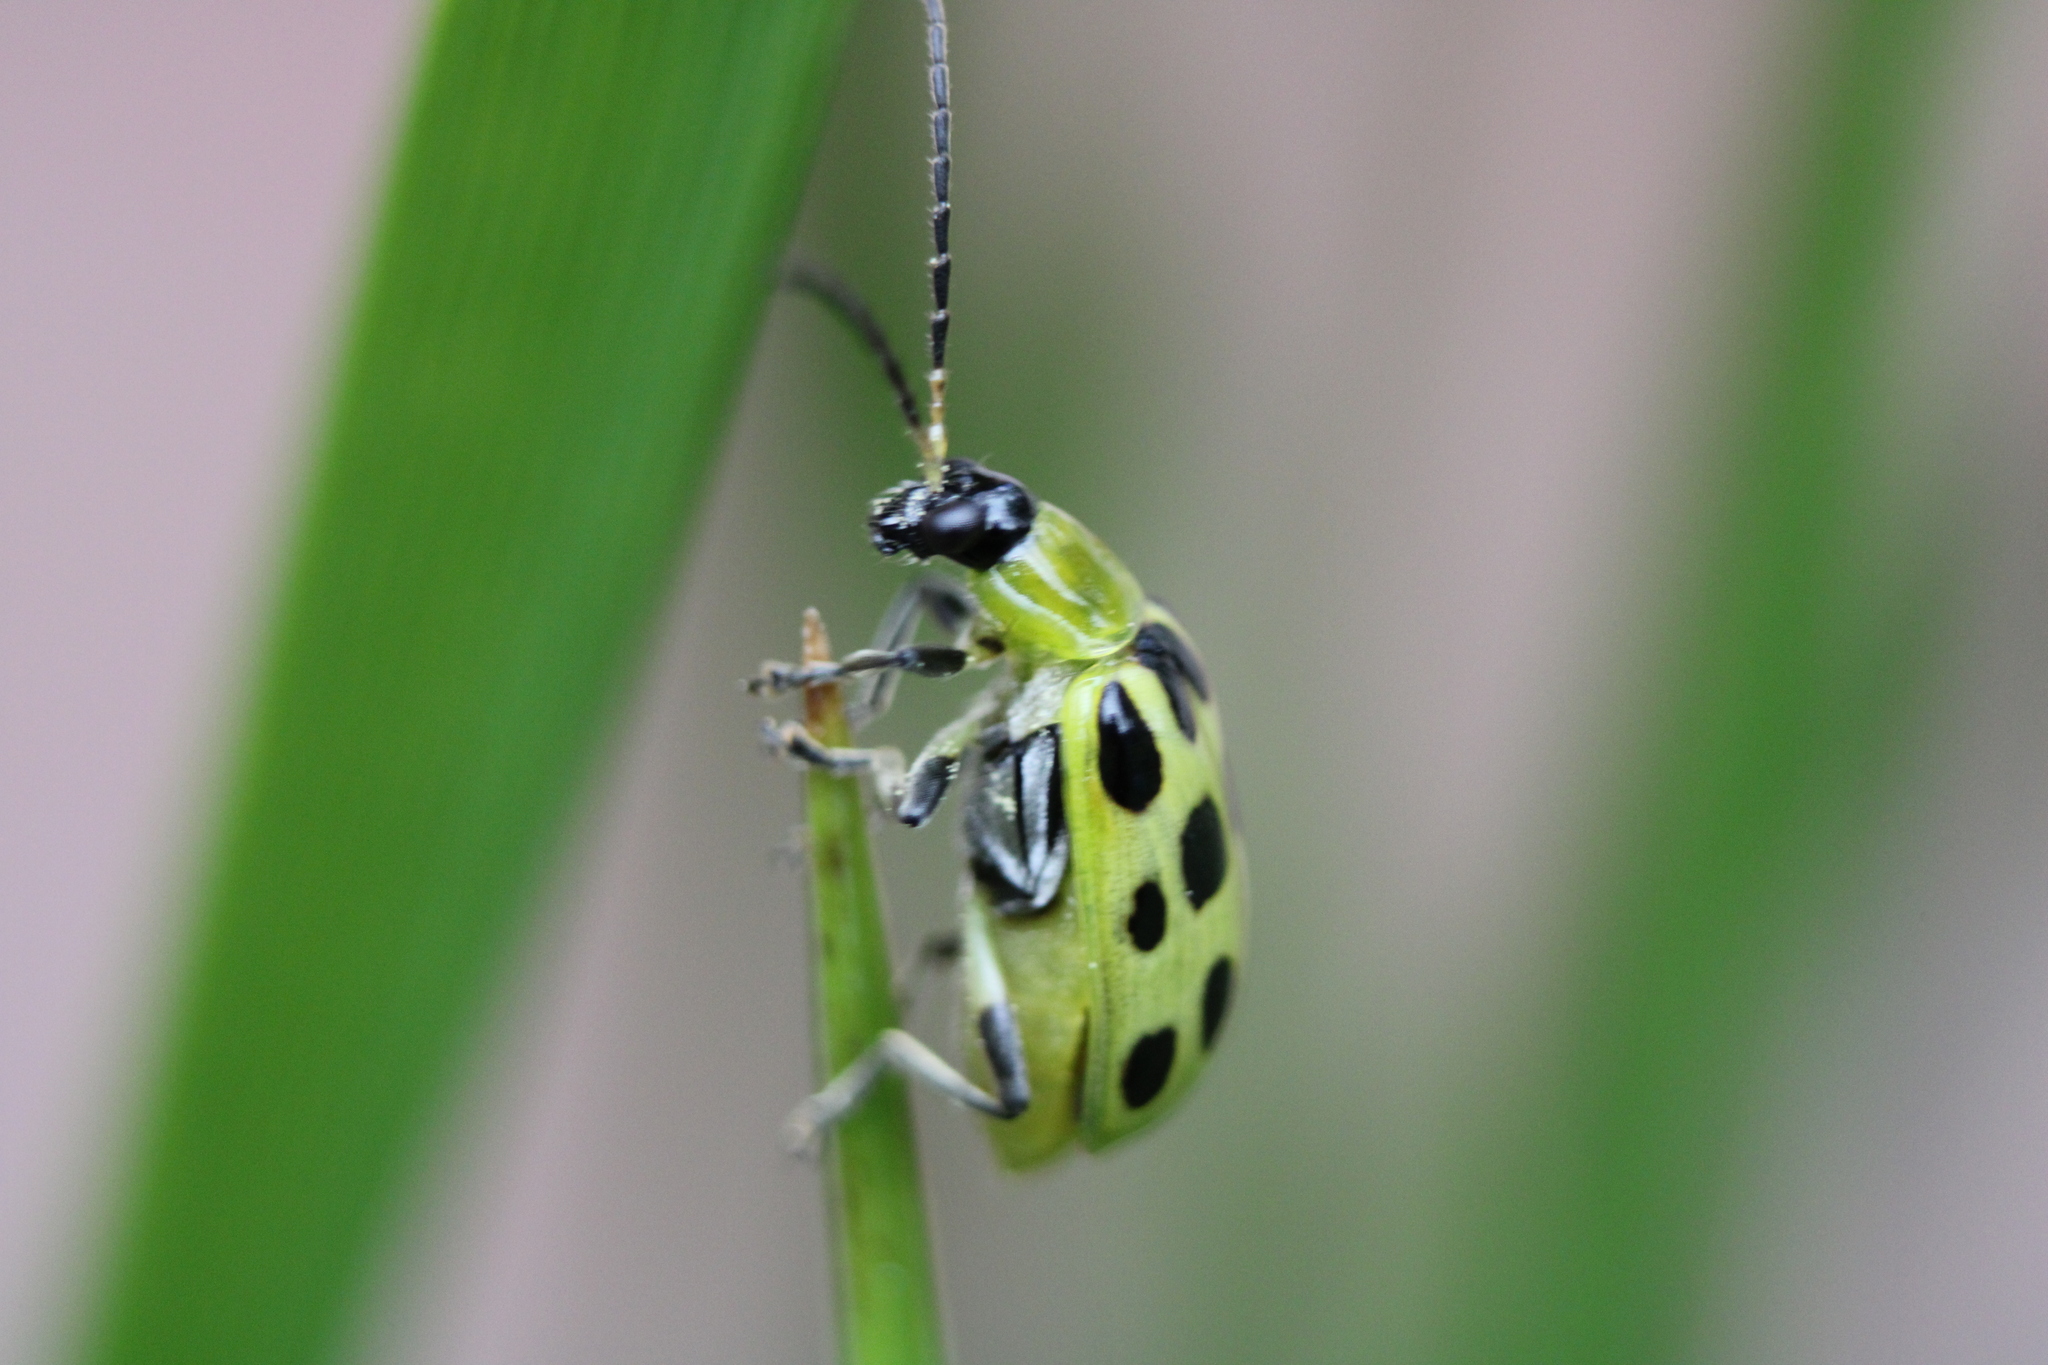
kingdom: Animalia
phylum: Arthropoda
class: Insecta
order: Coleoptera
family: Chrysomelidae
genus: Diabrotica
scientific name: Diabrotica undecimpunctata
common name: Spotted cucumber beetle
